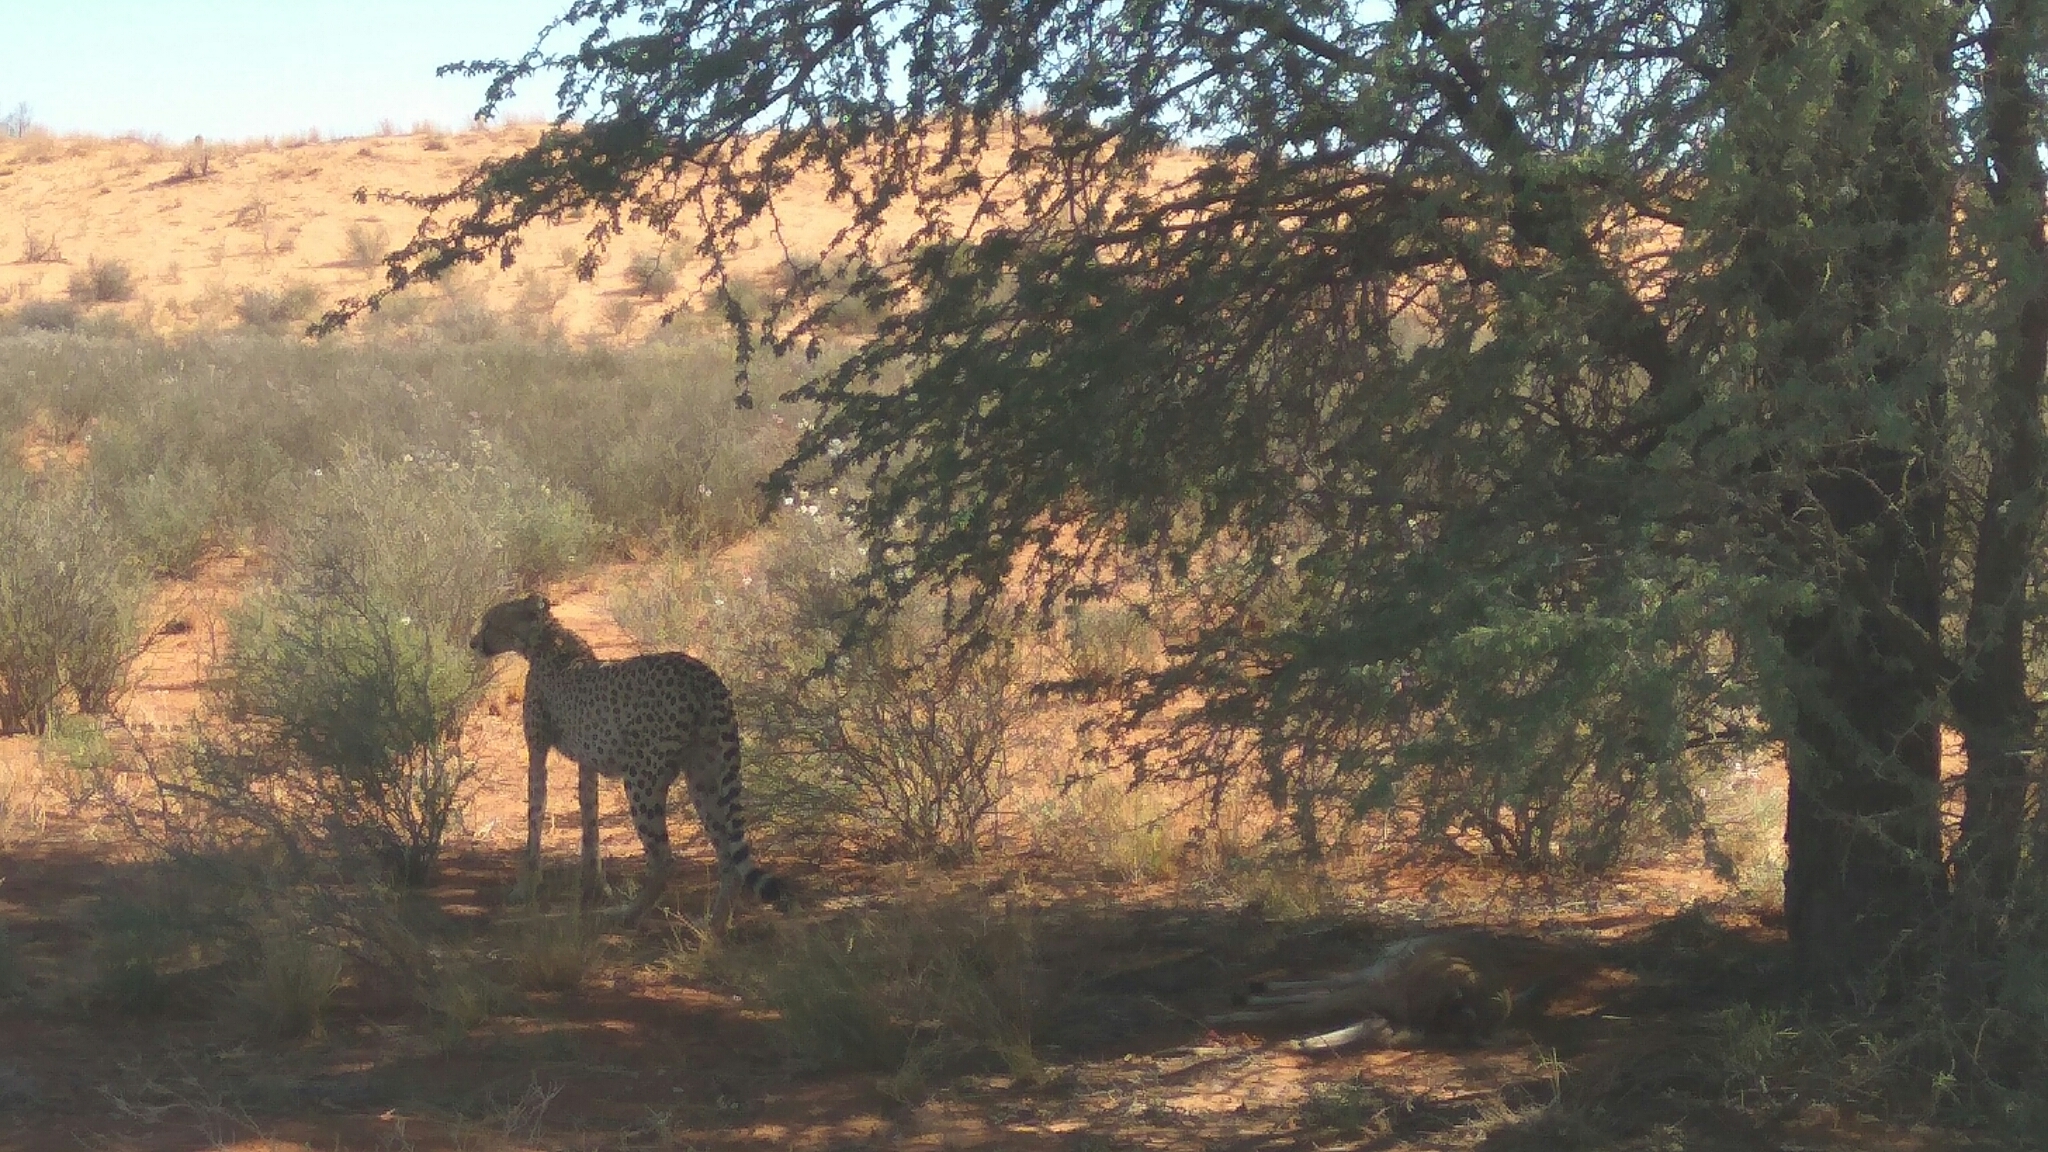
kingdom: Animalia
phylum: Chordata
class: Mammalia
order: Carnivora
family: Felidae
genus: Acinonyx
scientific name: Acinonyx jubatus
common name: Cheetah
